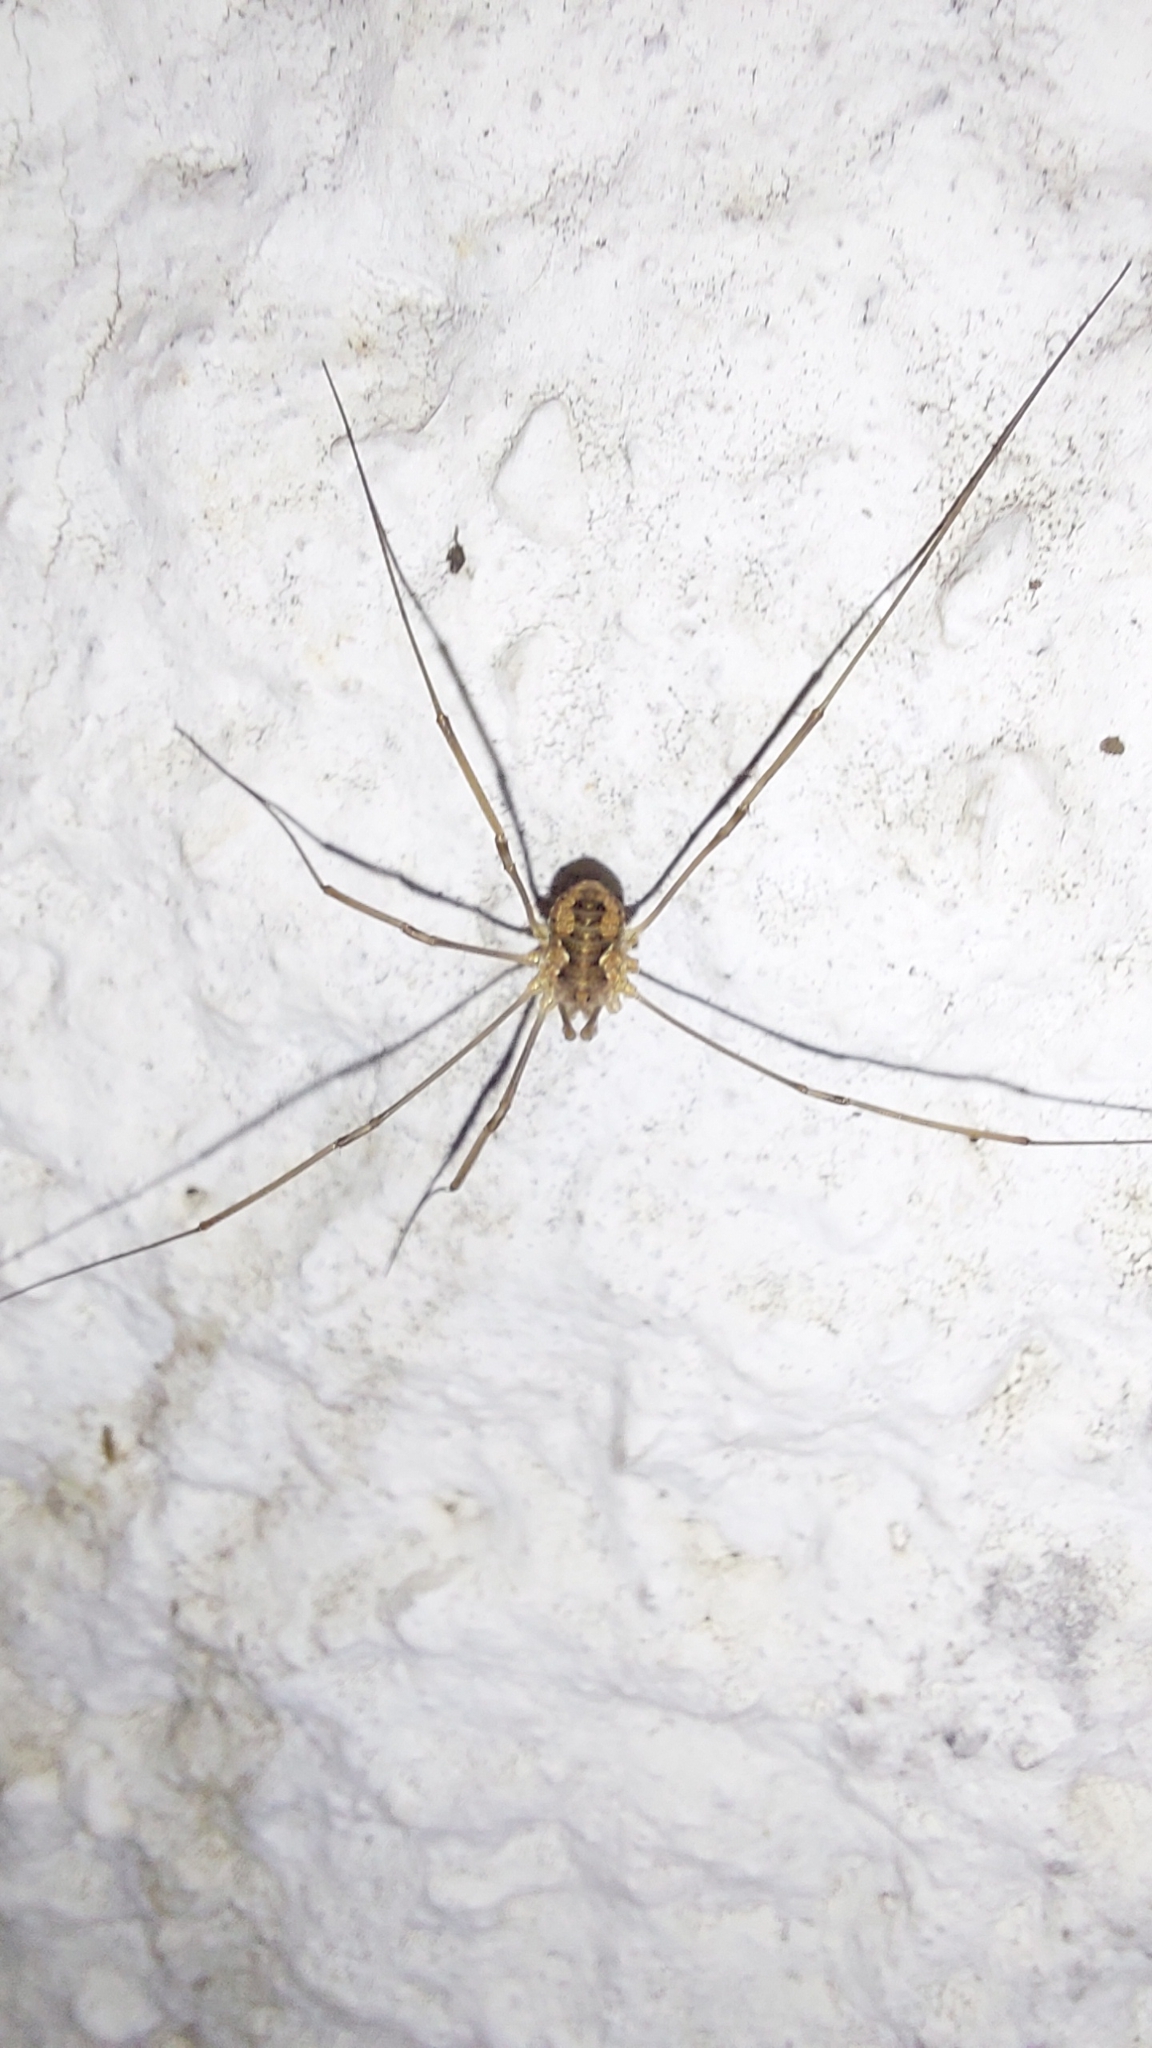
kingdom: Animalia
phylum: Arthropoda
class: Arachnida
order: Opiliones
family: Phalangiidae
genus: Phalangium
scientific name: Phalangium opilio
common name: Daddy longleg
